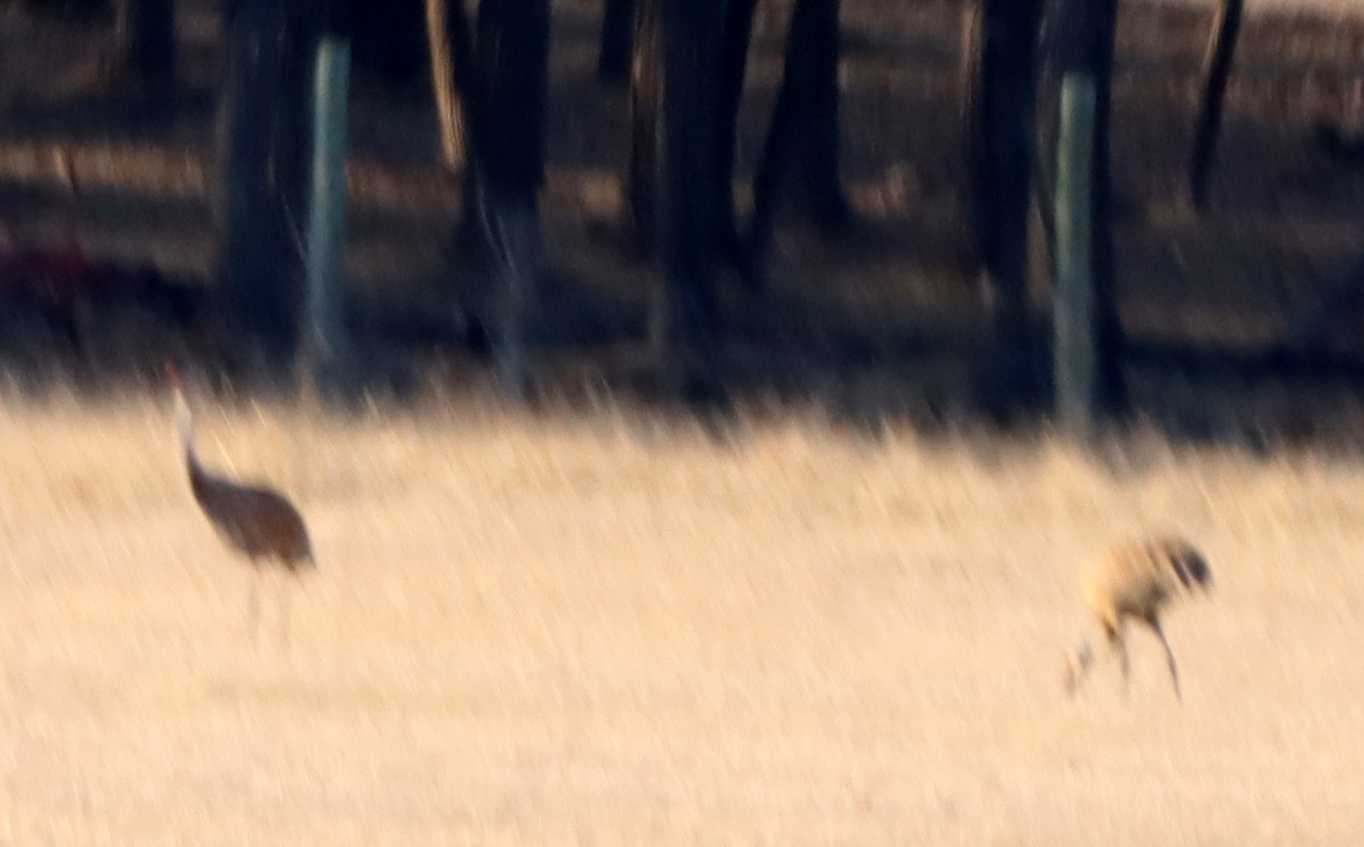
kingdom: Animalia
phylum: Chordata
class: Aves
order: Gruiformes
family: Gruidae
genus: Grus
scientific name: Grus canadensis
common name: Sandhill crane
